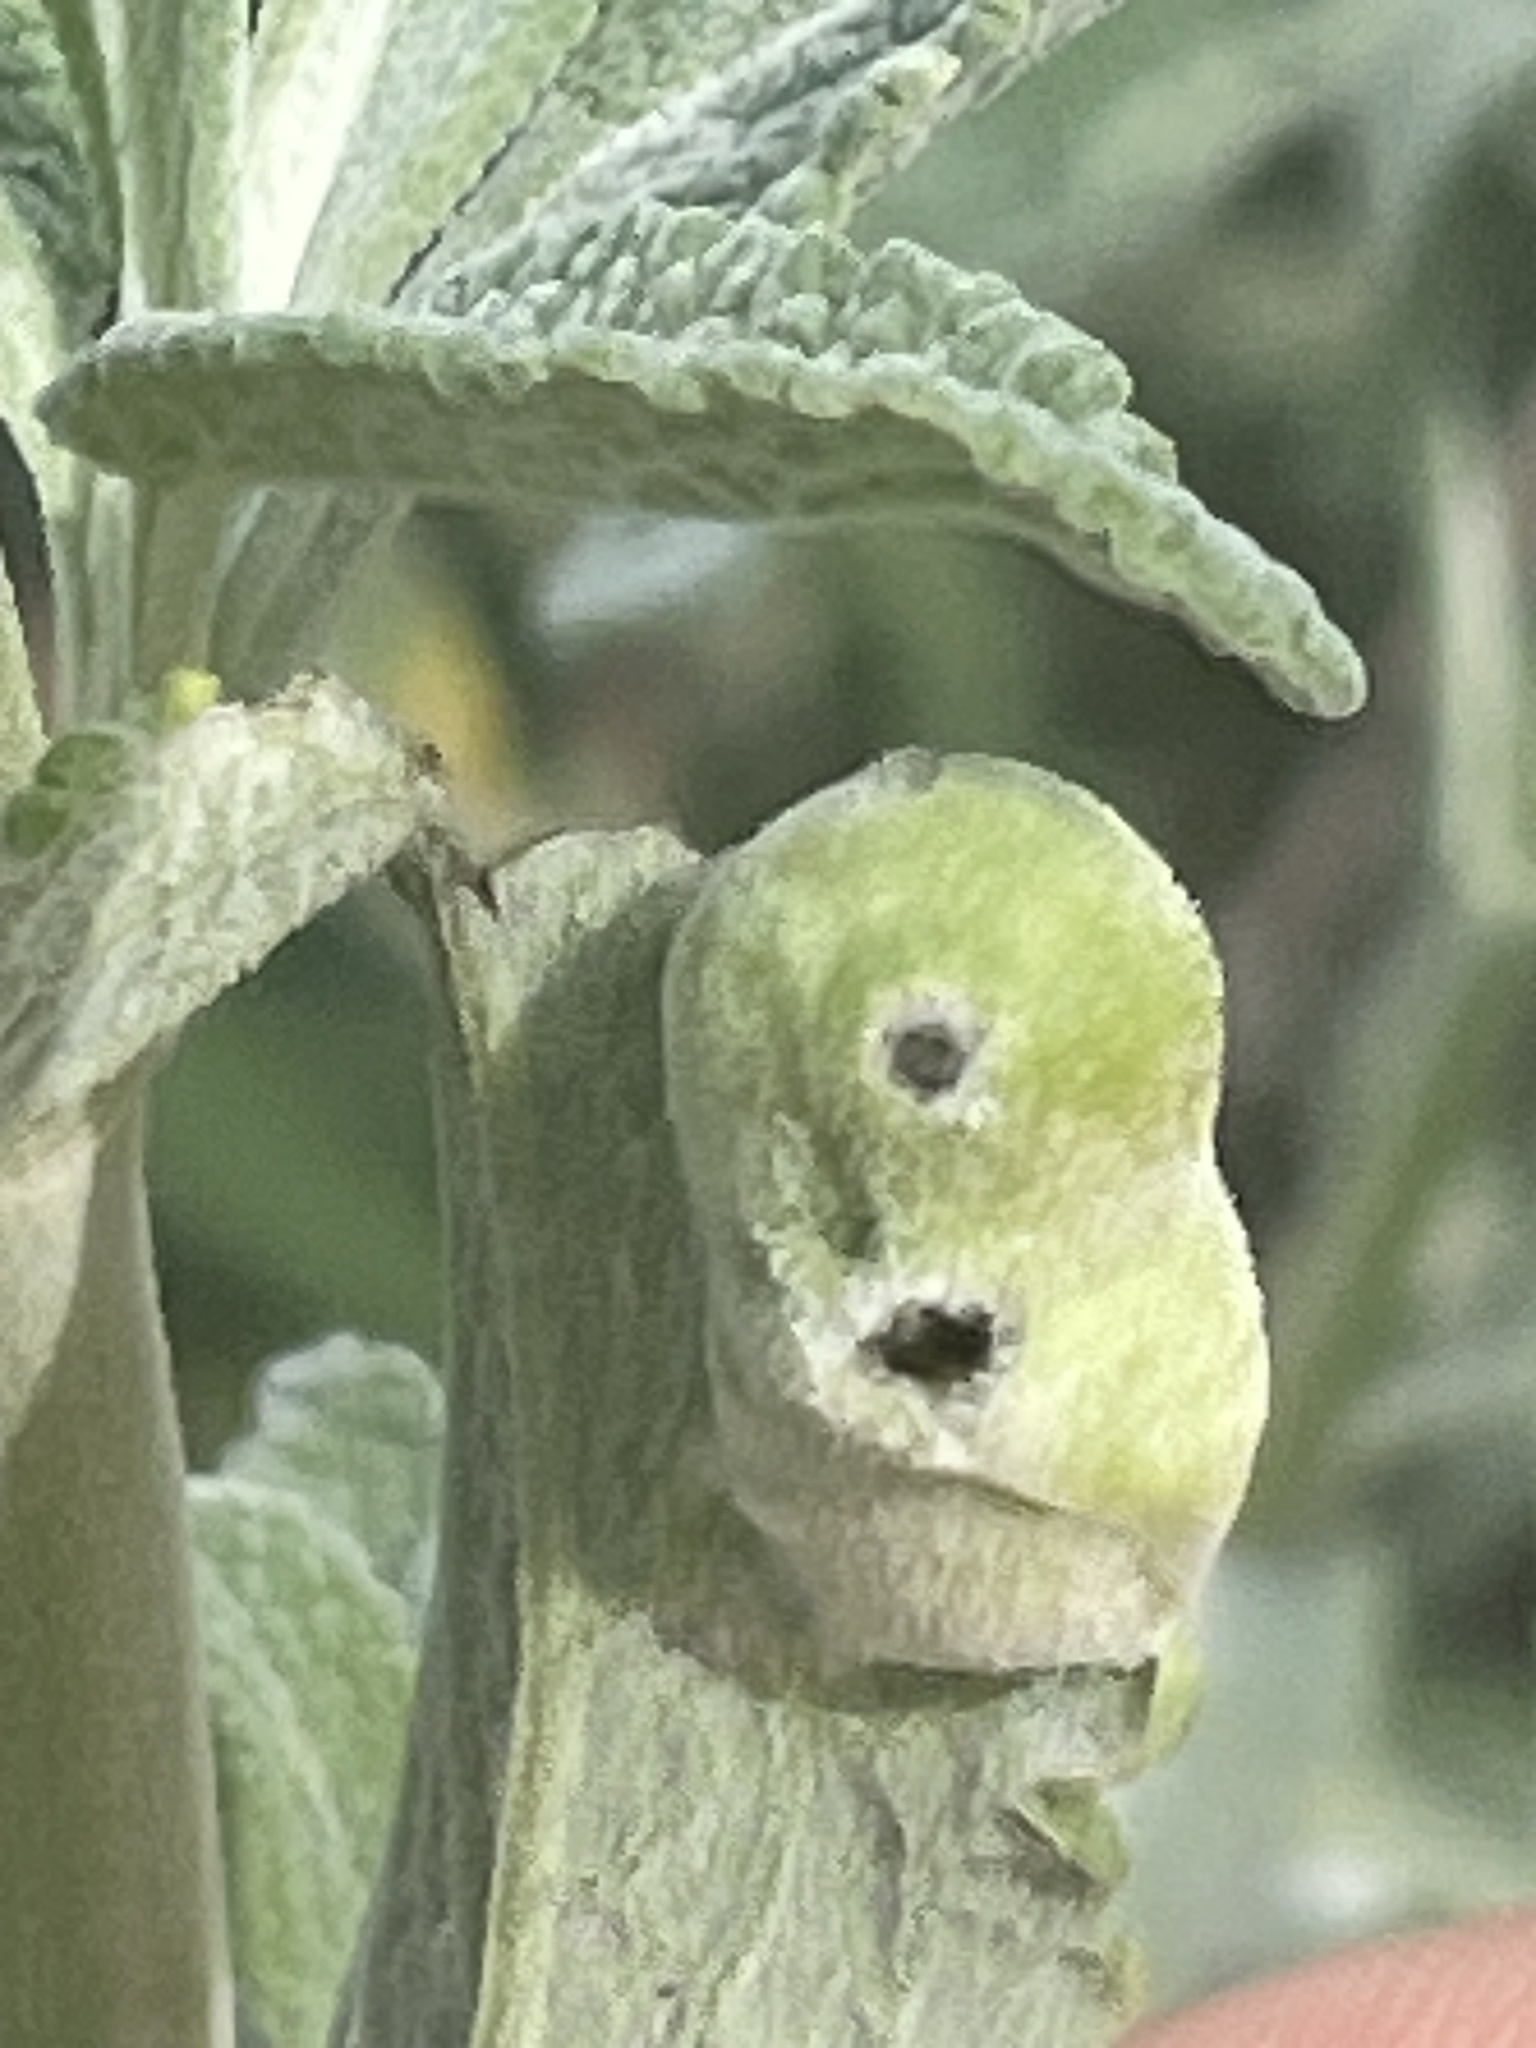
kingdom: Animalia
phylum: Arthropoda
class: Insecta
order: Diptera
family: Cecidomyiidae
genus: Rhopalomyia
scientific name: Rhopalomyia audibertiae
